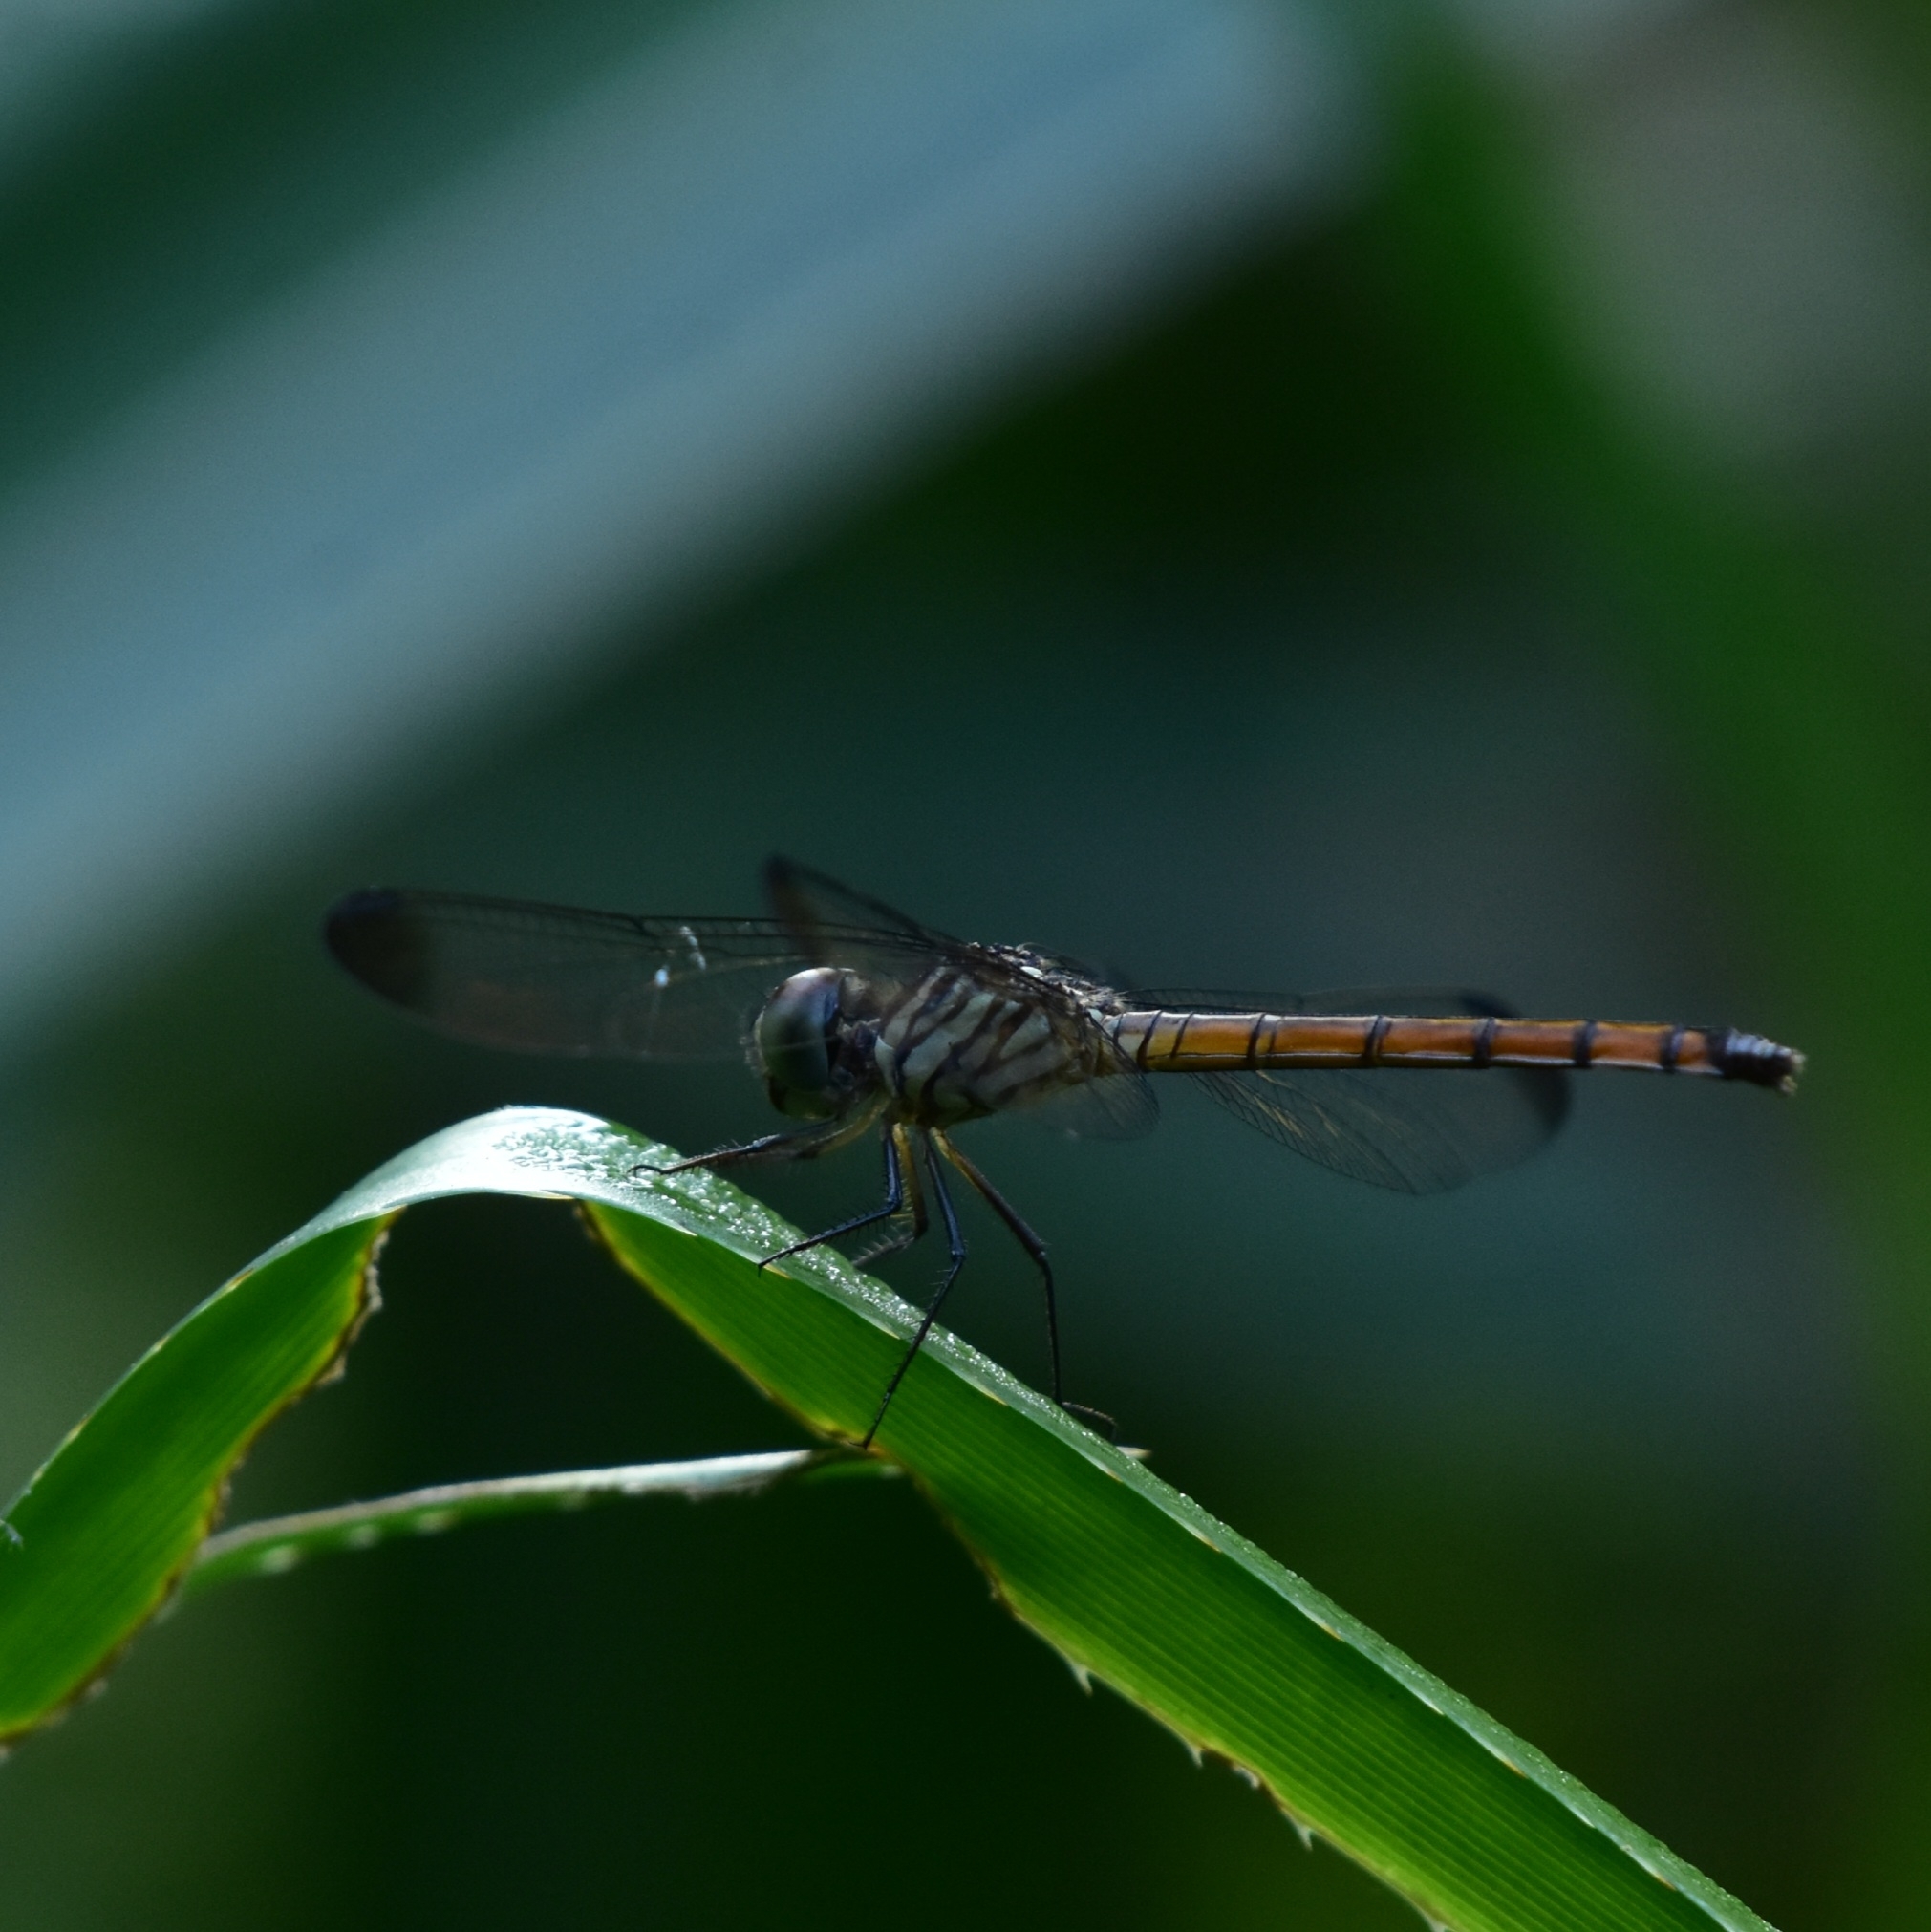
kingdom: Animalia
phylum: Arthropoda
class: Insecta
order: Odonata
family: Libellulidae
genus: Lathrecista
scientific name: Lathrecista asiatica
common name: Scarlet grenadier
